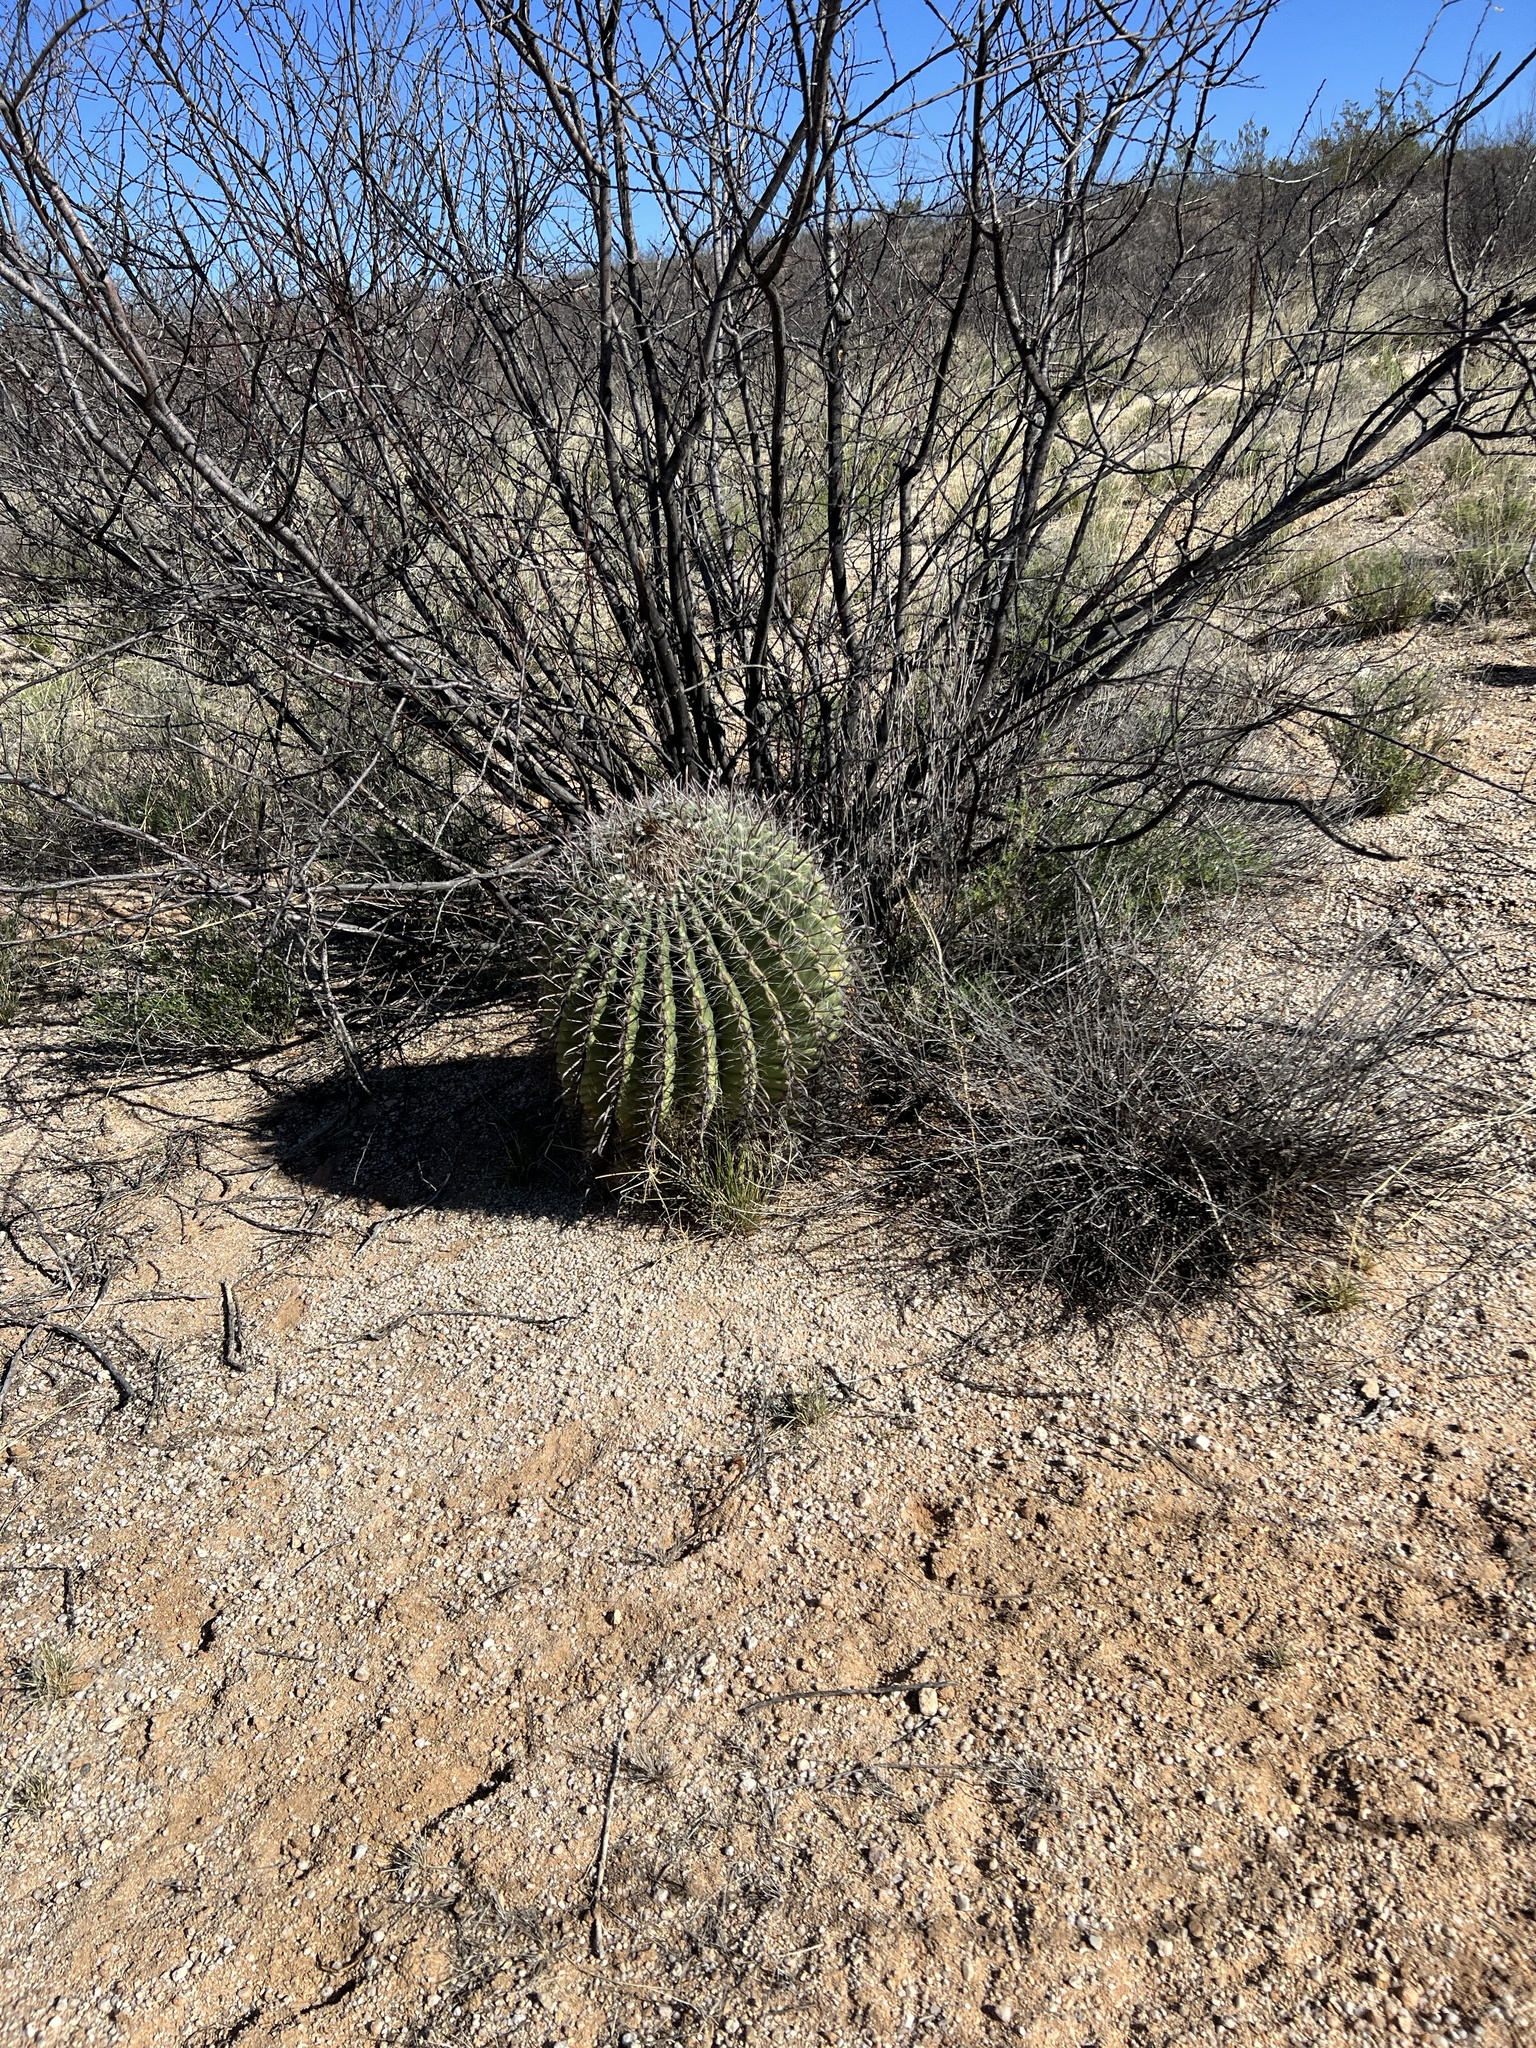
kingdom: Plantae
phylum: Tracheophyta
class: Magnoliopsida
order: Caryophyllales
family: Cactaceae
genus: Ferocactus
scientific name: Ferocactus wislizeni
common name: Candy barrel cactus
